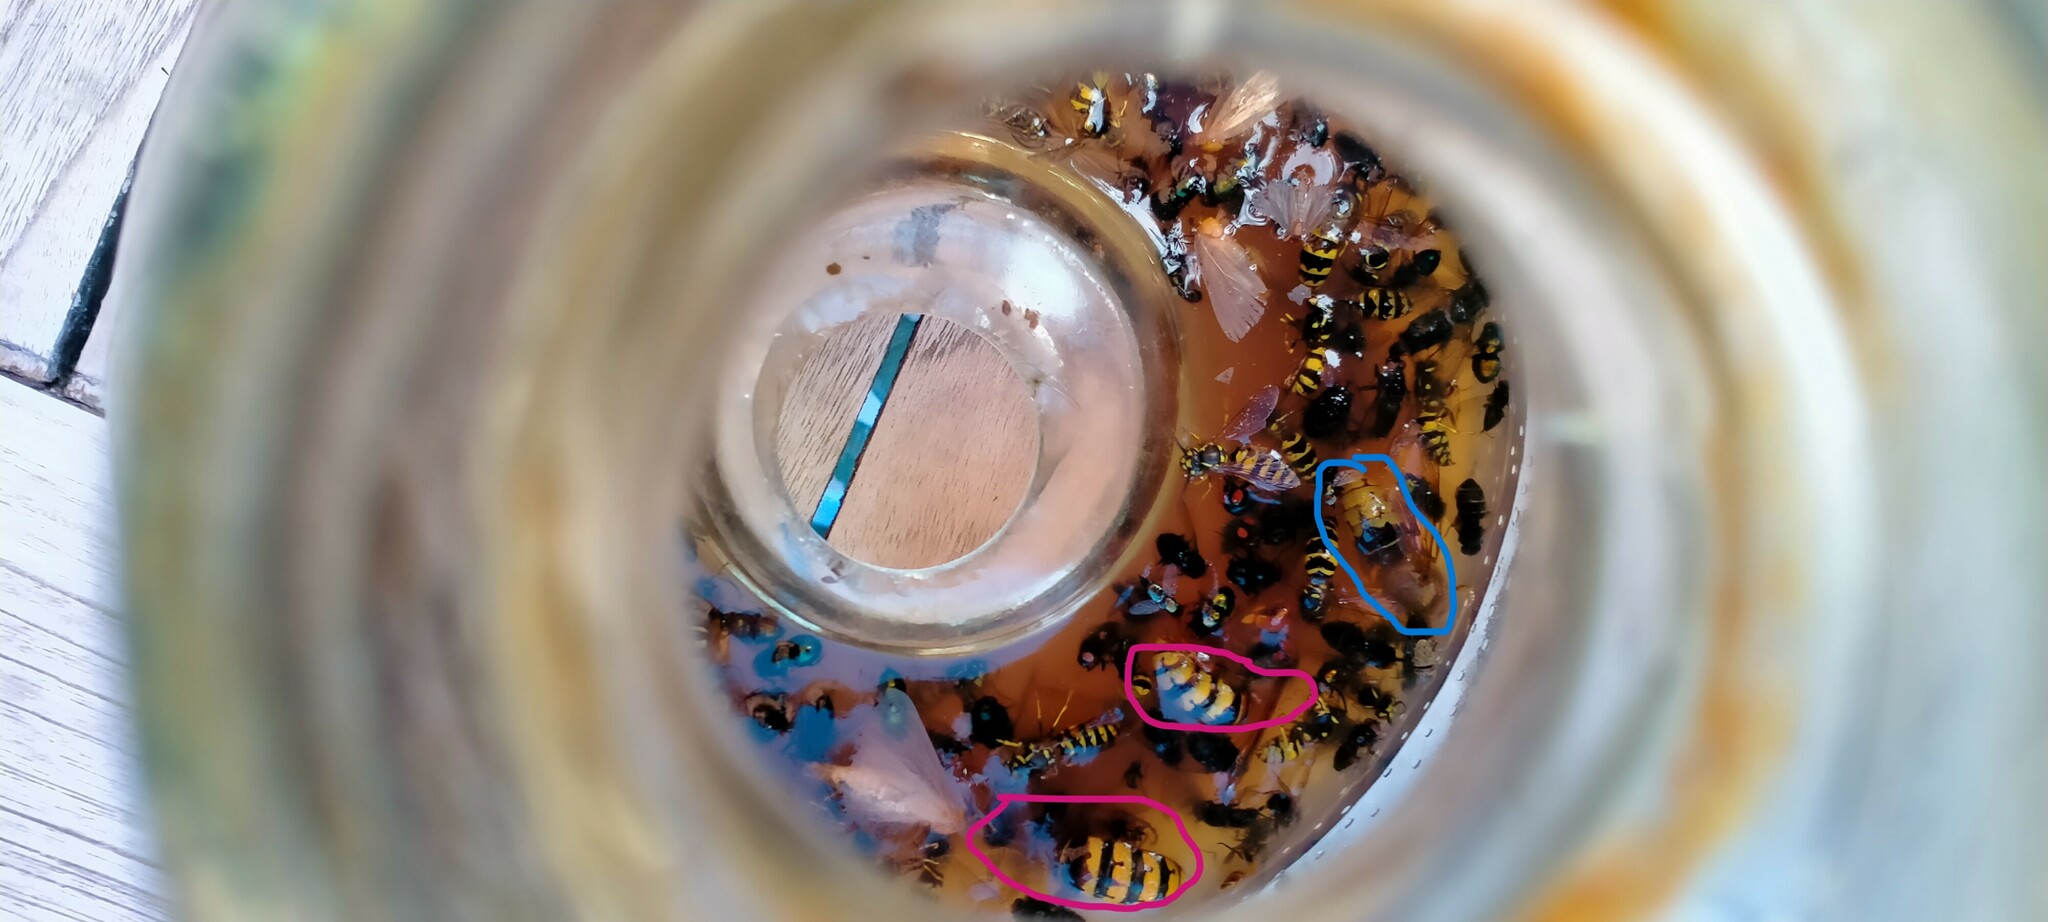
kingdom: Animalia
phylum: Arthropoda
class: Insecta
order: Hymenoptera
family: Vespidae
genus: Vespa
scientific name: Vespa crabro
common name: Hornet
